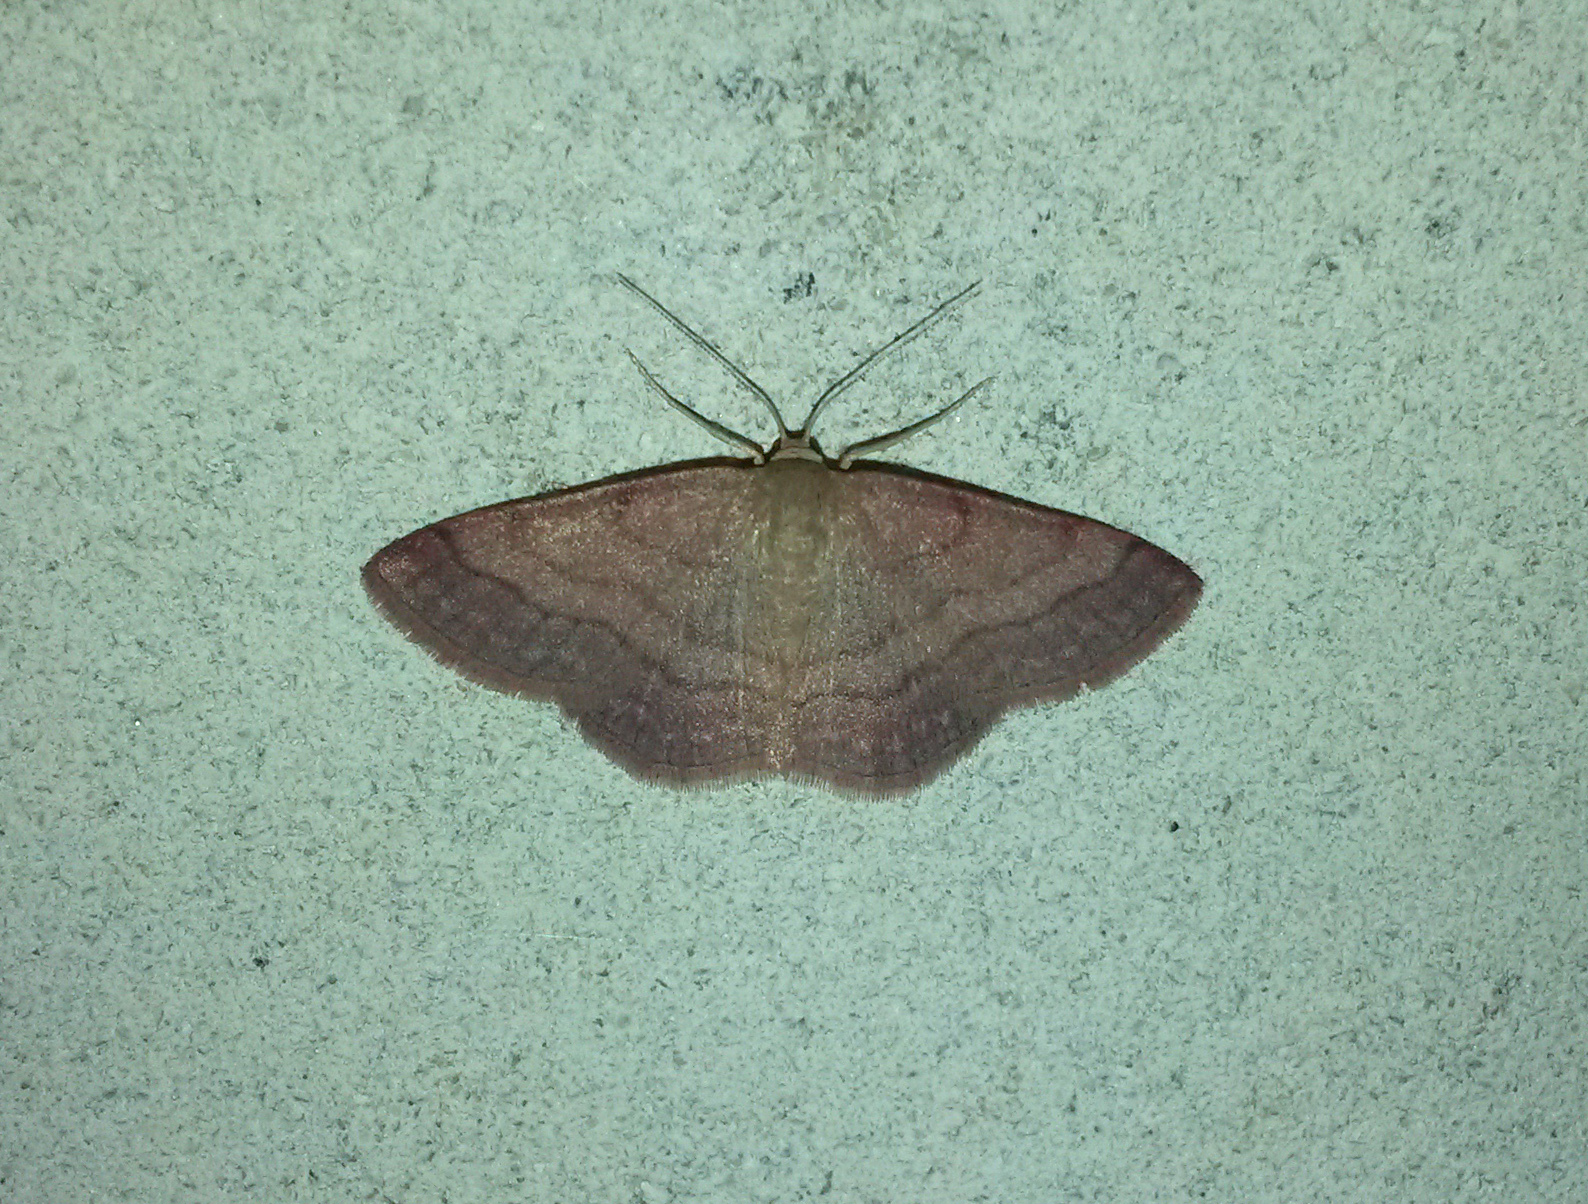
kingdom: Animalia
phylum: Arthropoda
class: Insecta
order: Lepidoptera
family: Geometridae
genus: Scopula
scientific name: Scopula rubiginata
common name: Tawny wave
